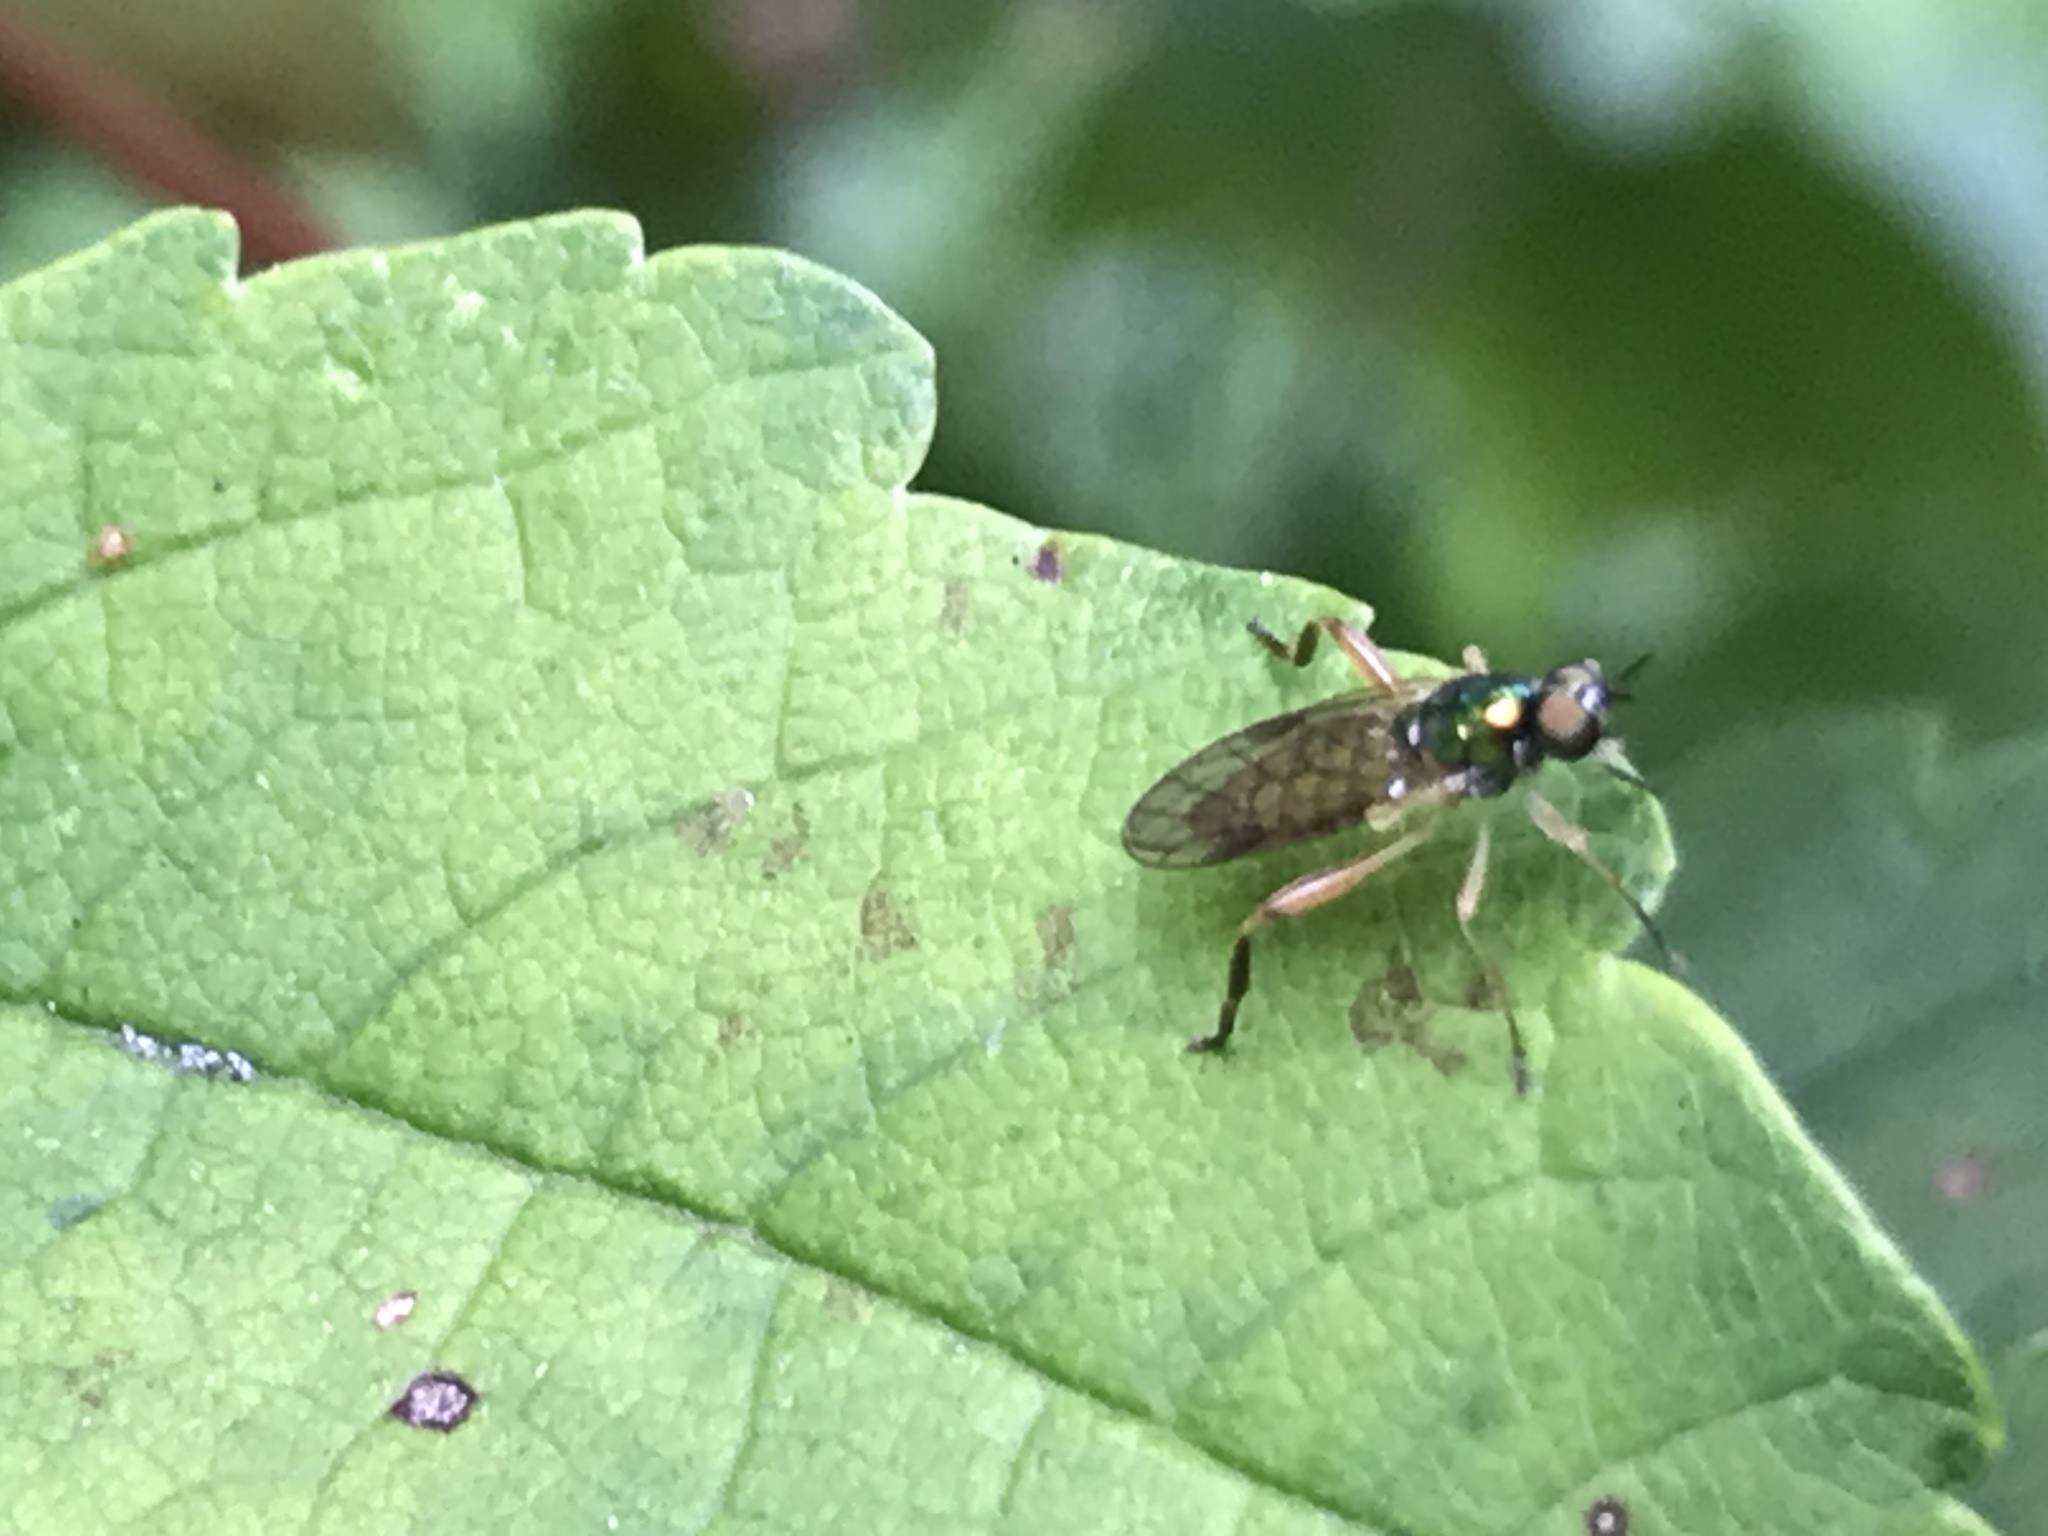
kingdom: Animalia
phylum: Arthropoda
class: Insecta
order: Diptera
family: Stratiomyidae
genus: Chorisops
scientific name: Chorisops tibialis
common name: Dull four-spined legionnaire
